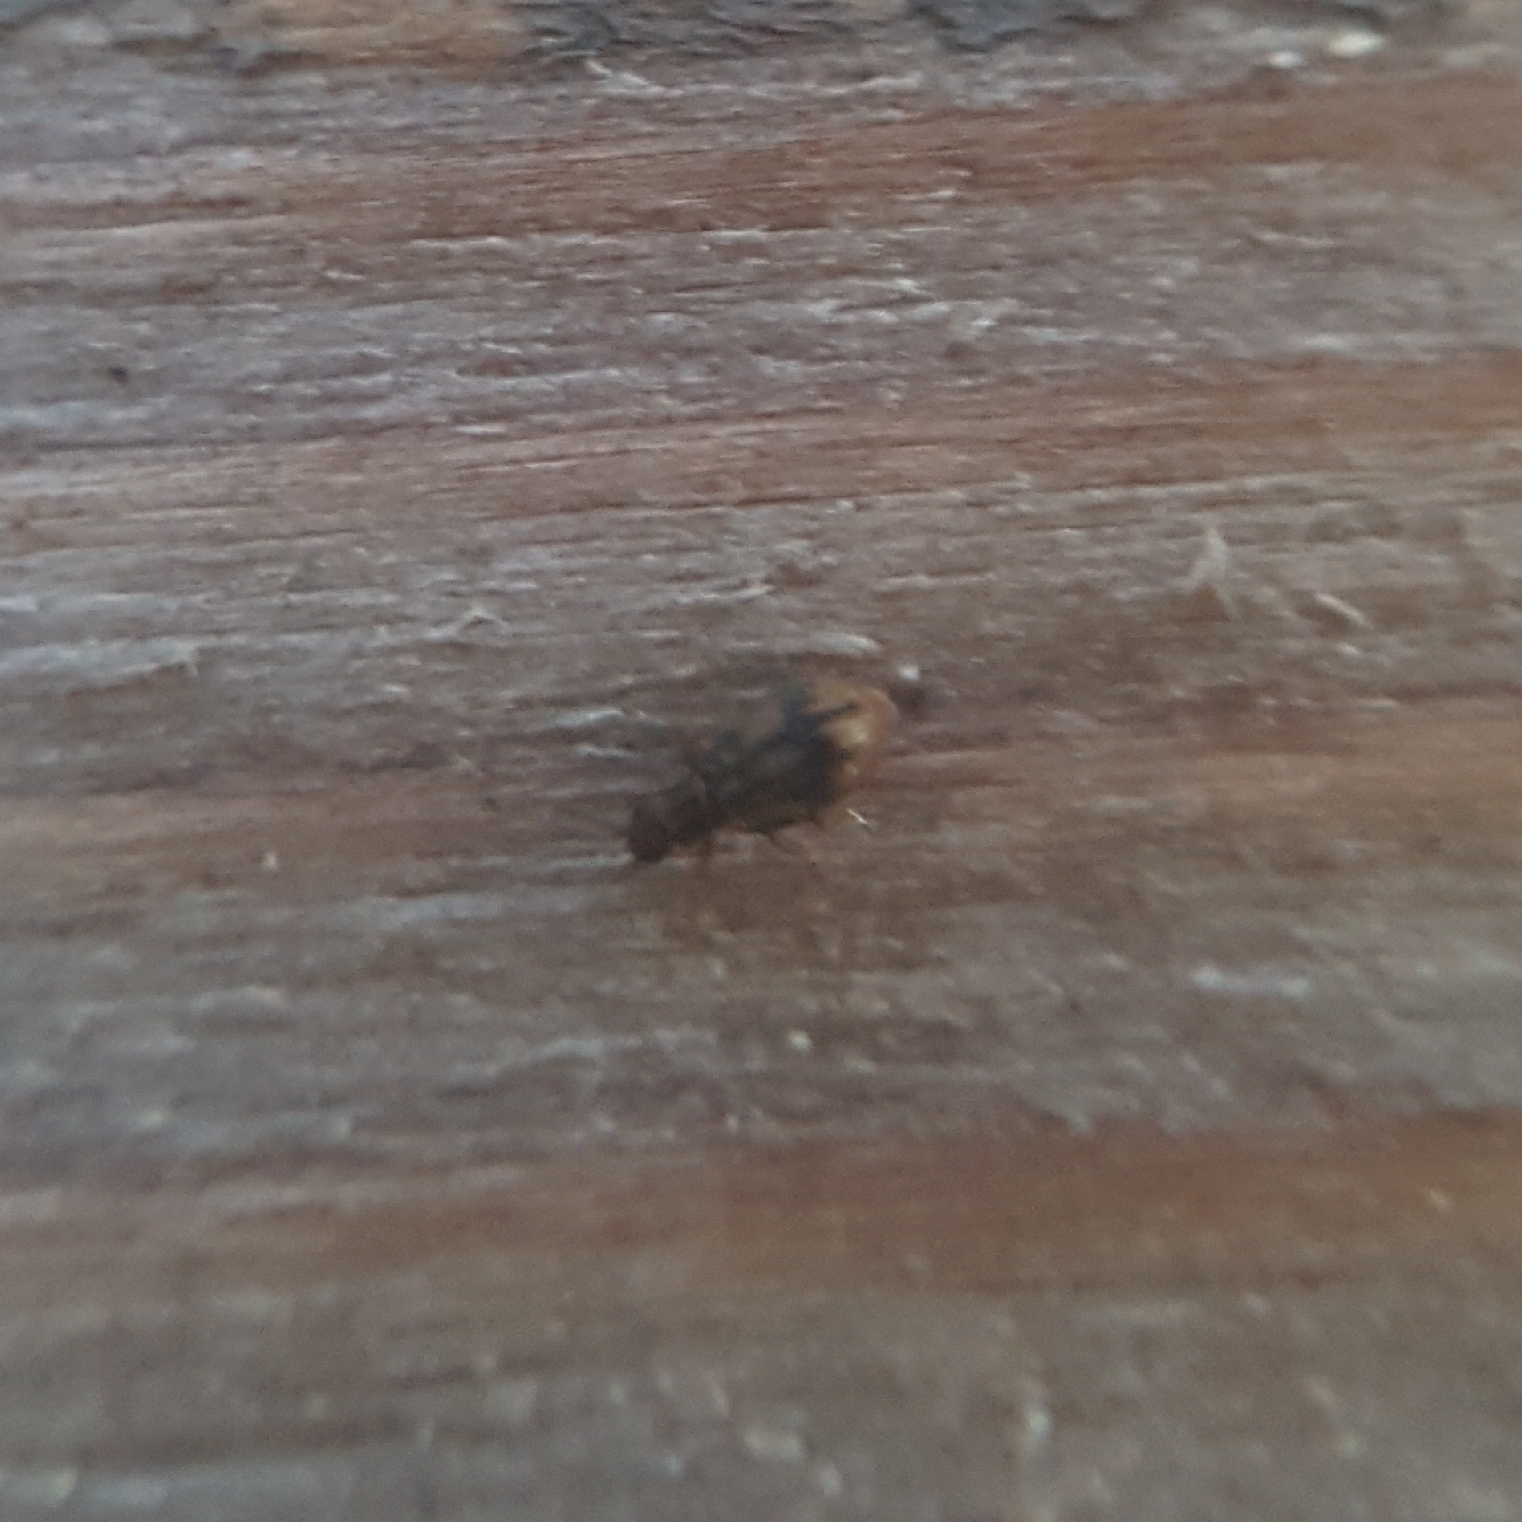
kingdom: Animalia
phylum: Arthropoda
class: Insecta
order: Coleoptera
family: Latridiidae
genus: Cartodere
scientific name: Cartodere bifasciata
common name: Plaster beetle
